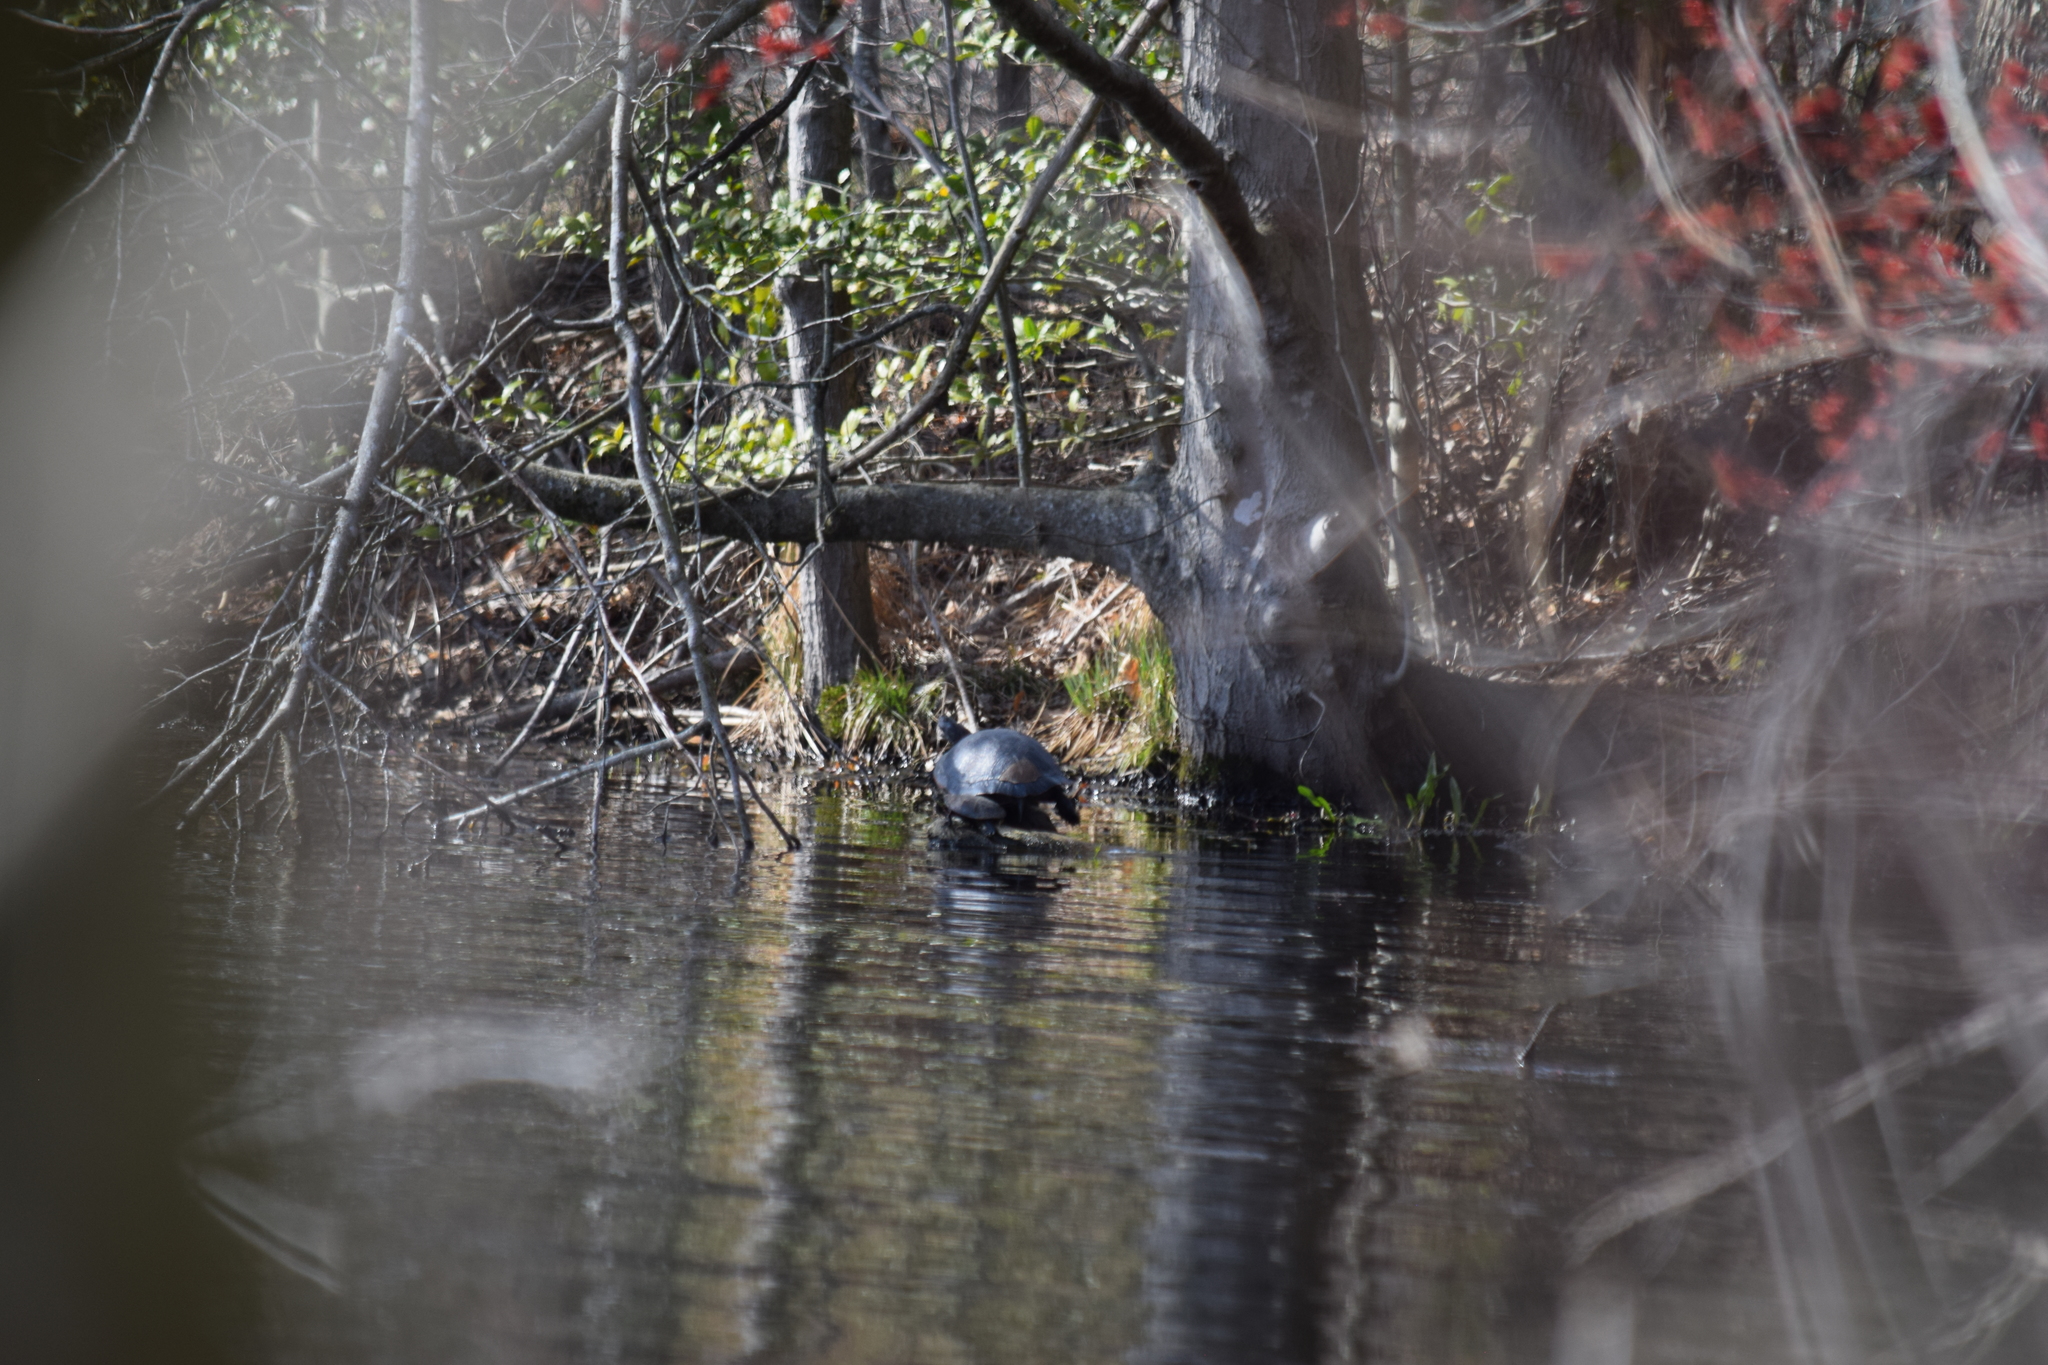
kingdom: Animalia
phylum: Chordata
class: Testudines
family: Emydidae
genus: Pseudemys
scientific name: Pseudemys rubriventris
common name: American red-bellied turtle
